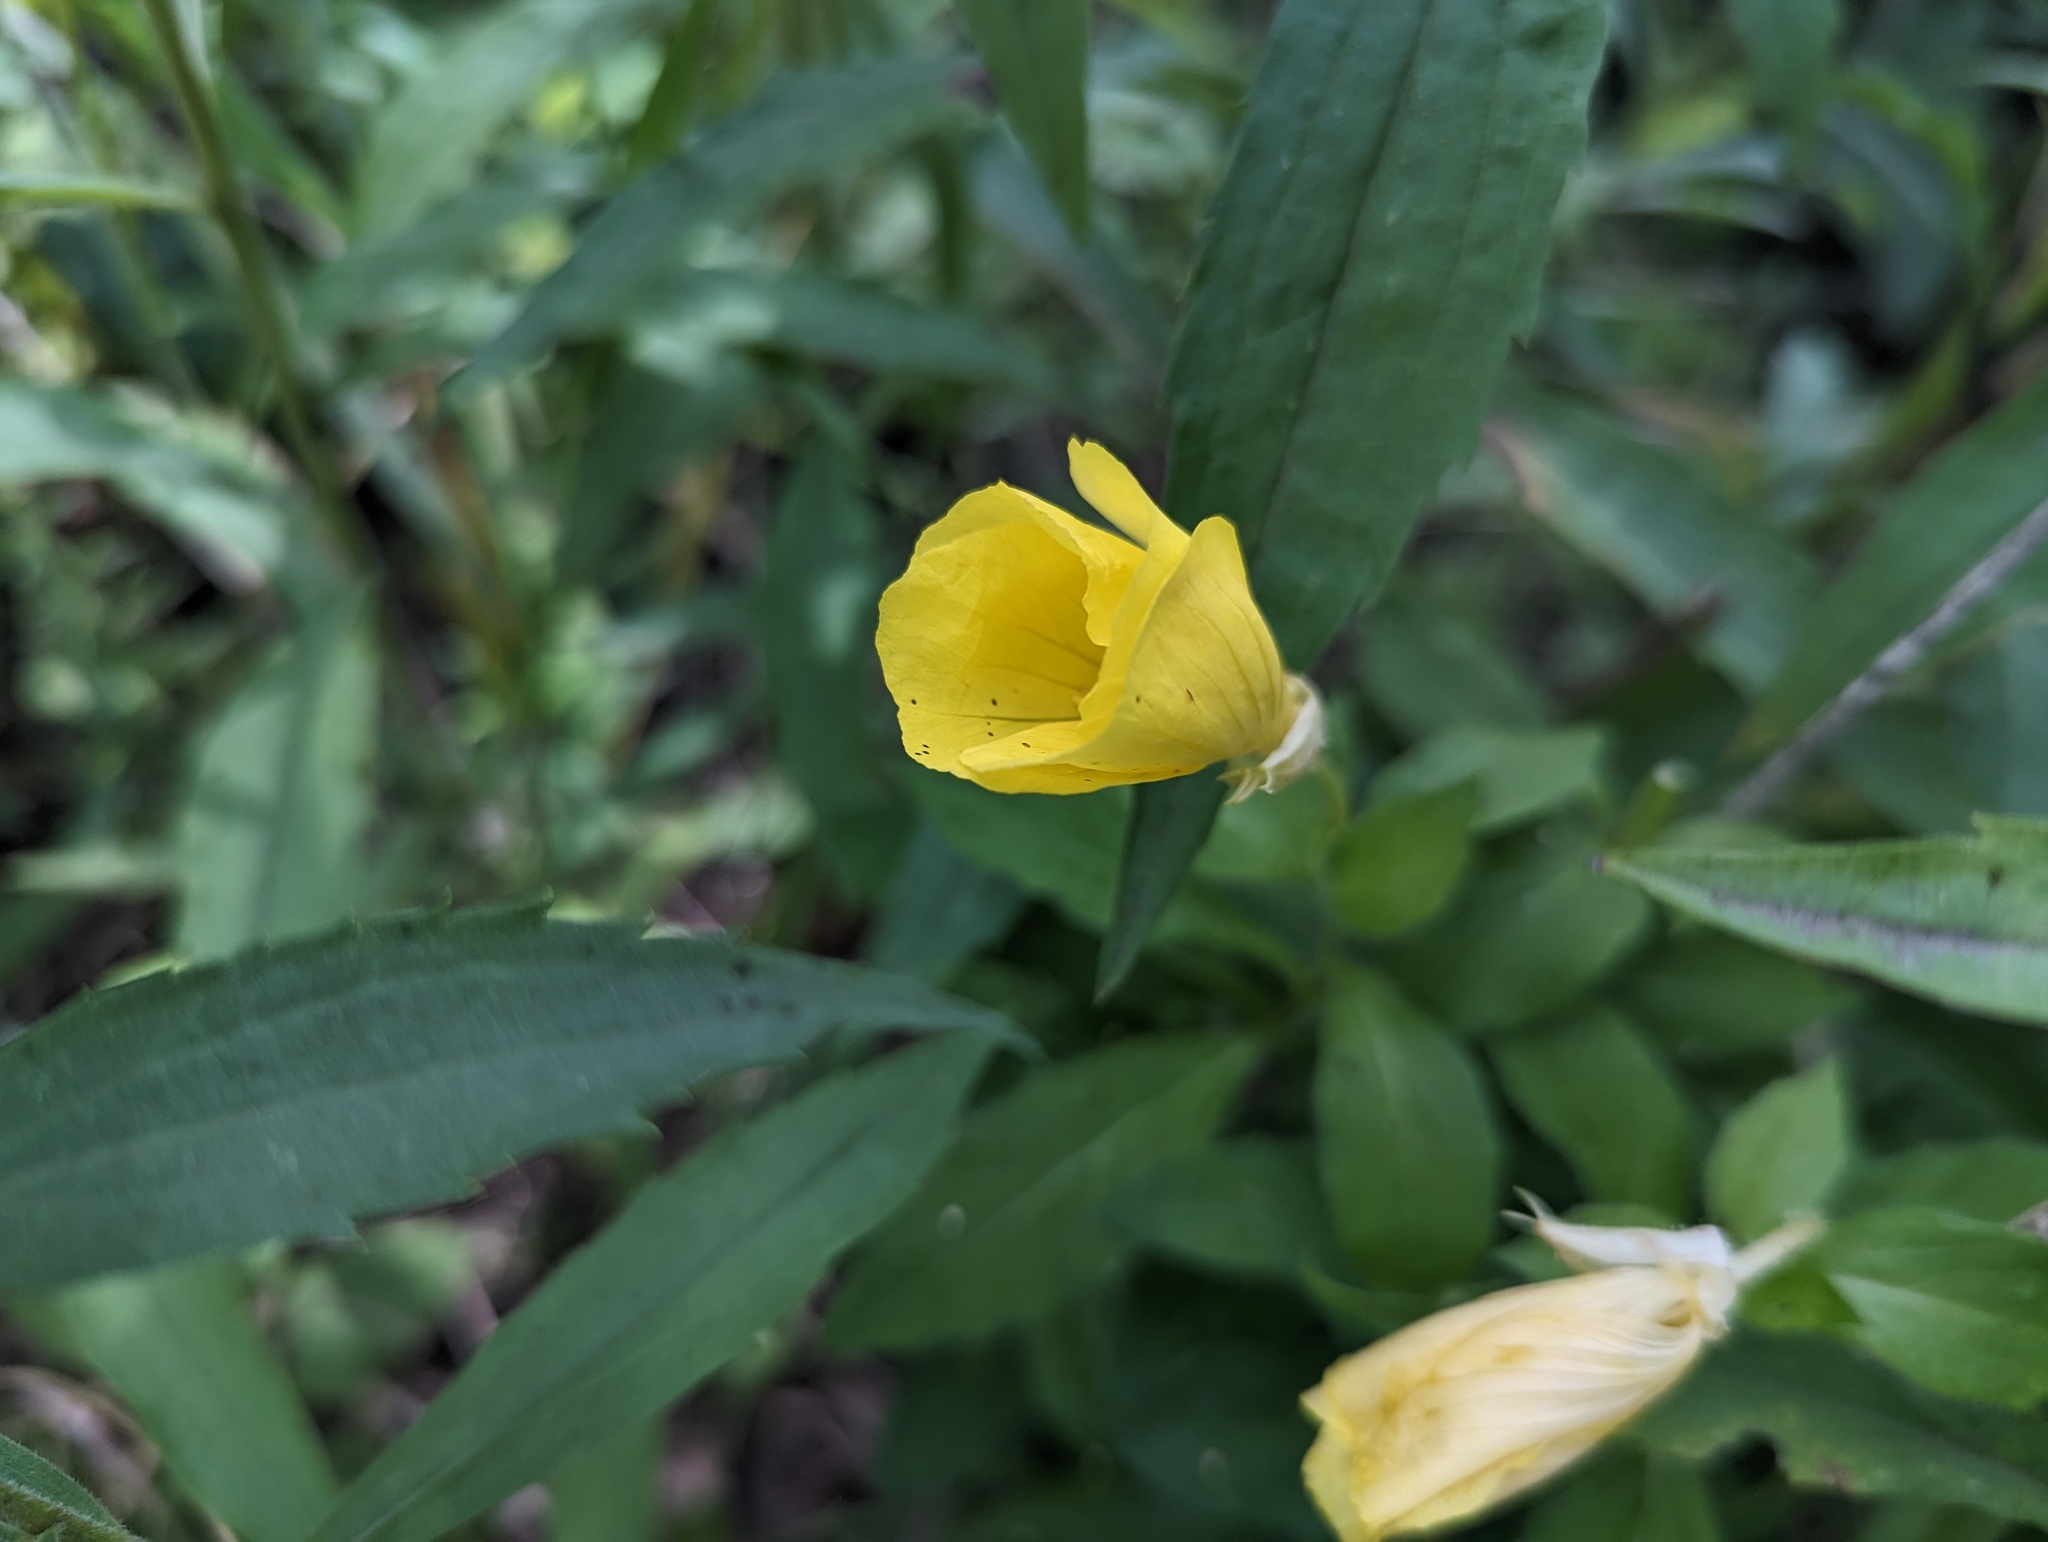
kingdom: Plantae
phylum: Tracheophyta
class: Magnoliopsida
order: Myrtales
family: Onagraceae
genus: Oenothera
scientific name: Oenothera pilosella
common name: Finely-pilose evening-primrose
